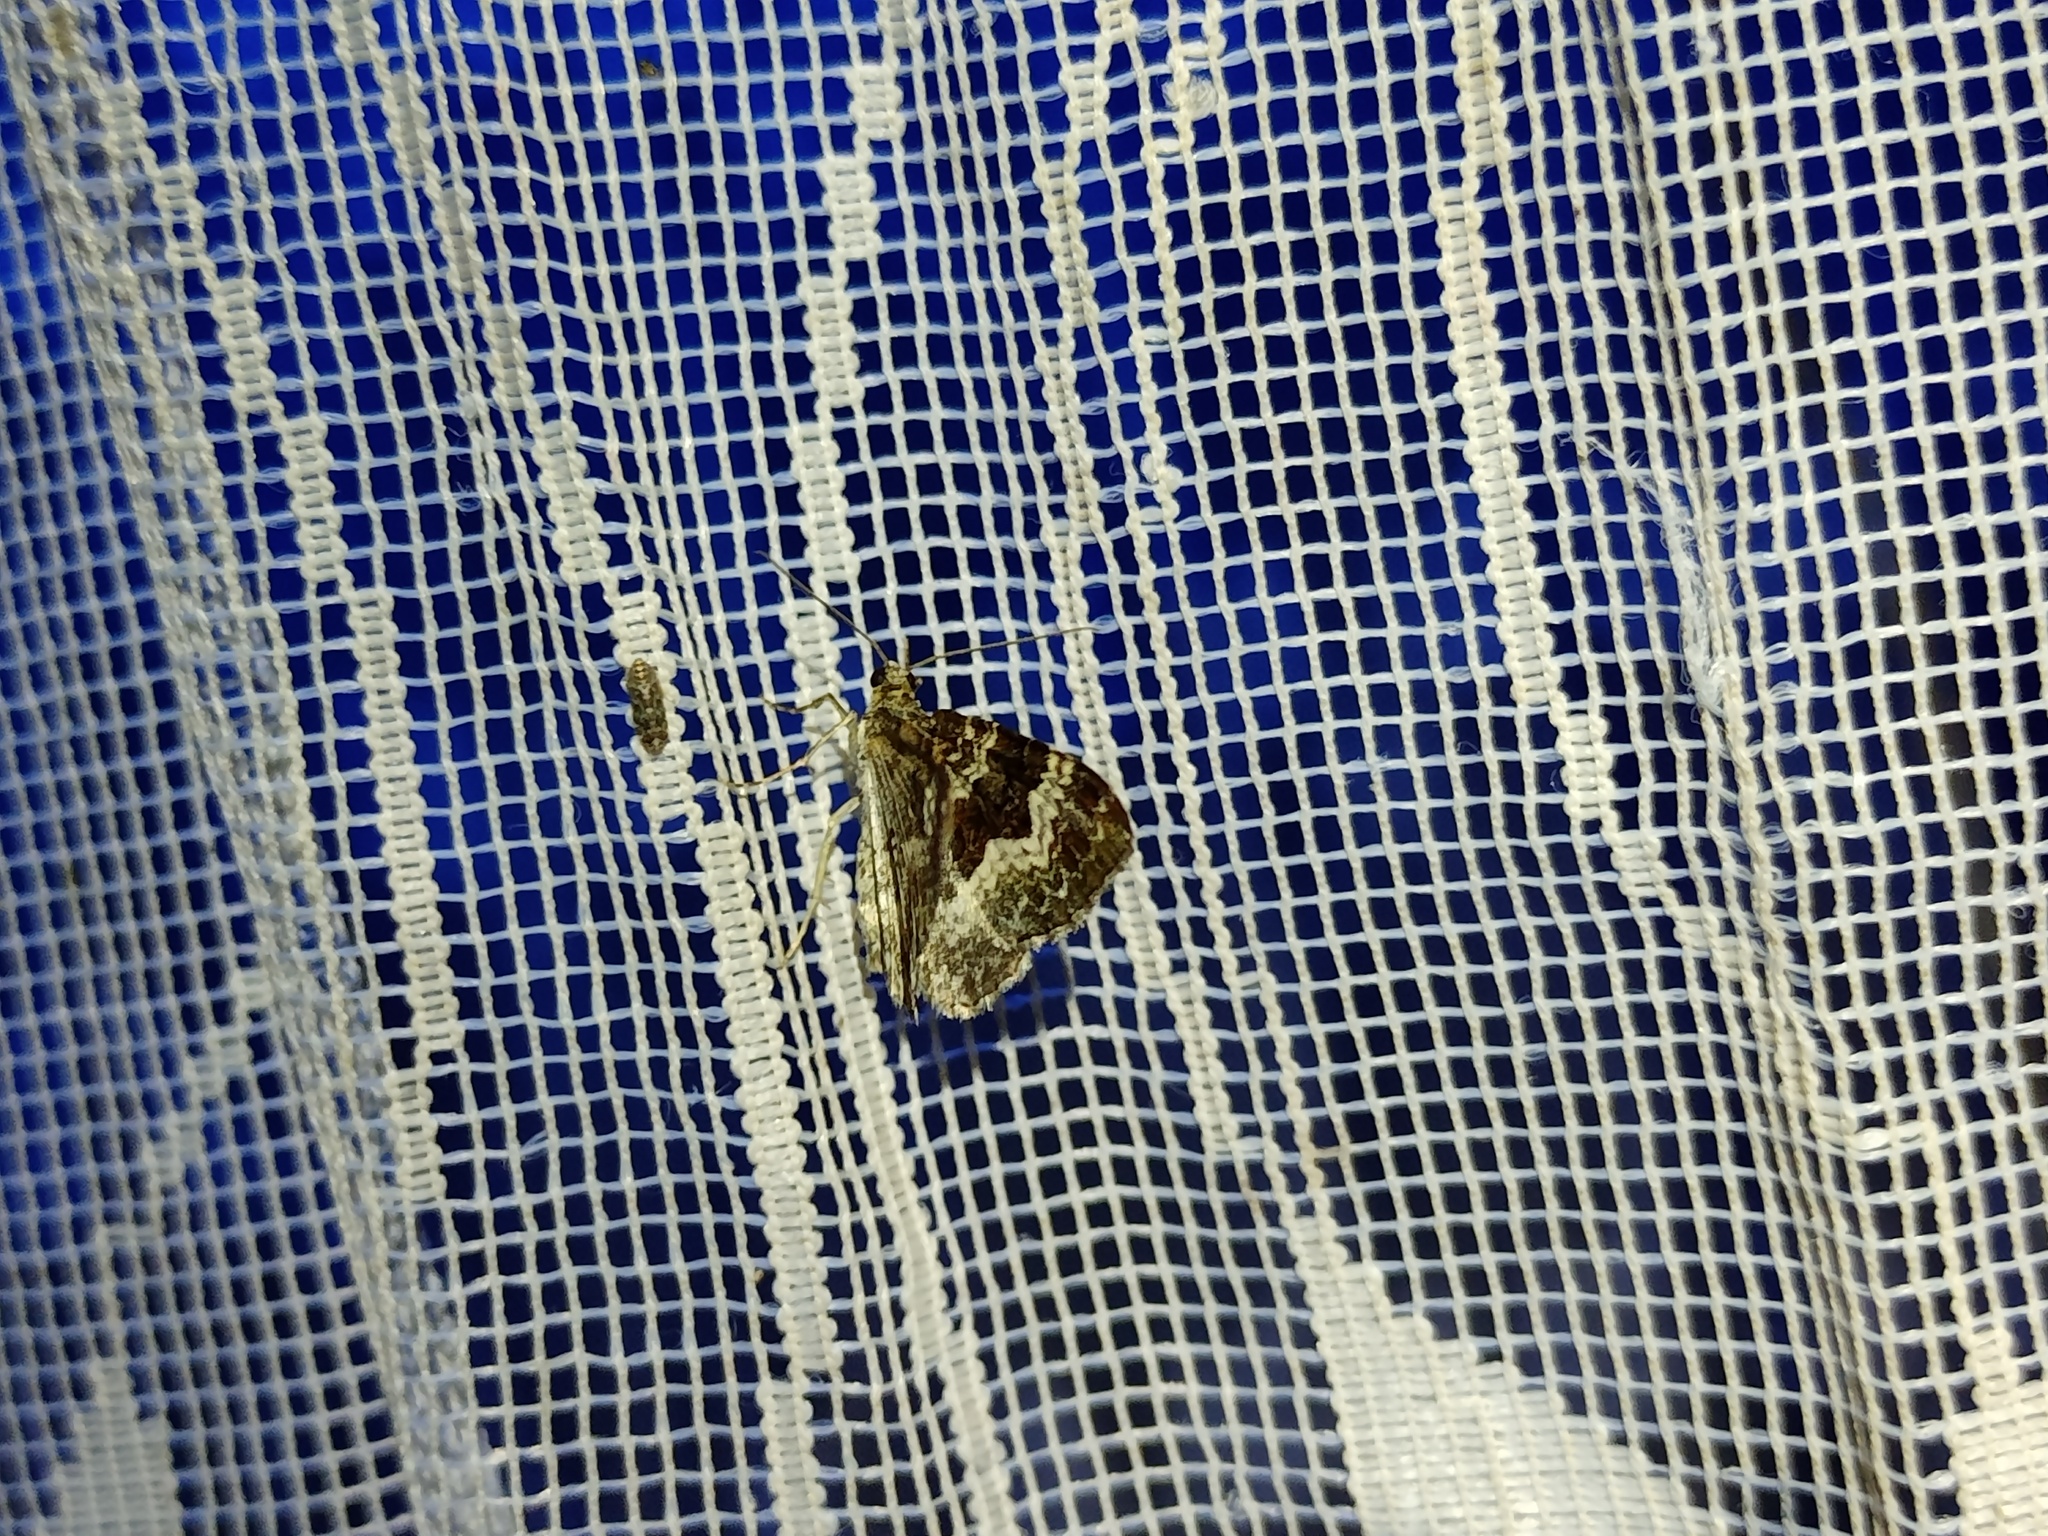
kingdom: Animalia
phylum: Arthropoda
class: Insecta
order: Lepidoptera
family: Geometridae
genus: Epirrhoe
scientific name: Epirrhoe alternata
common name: Common carpet
